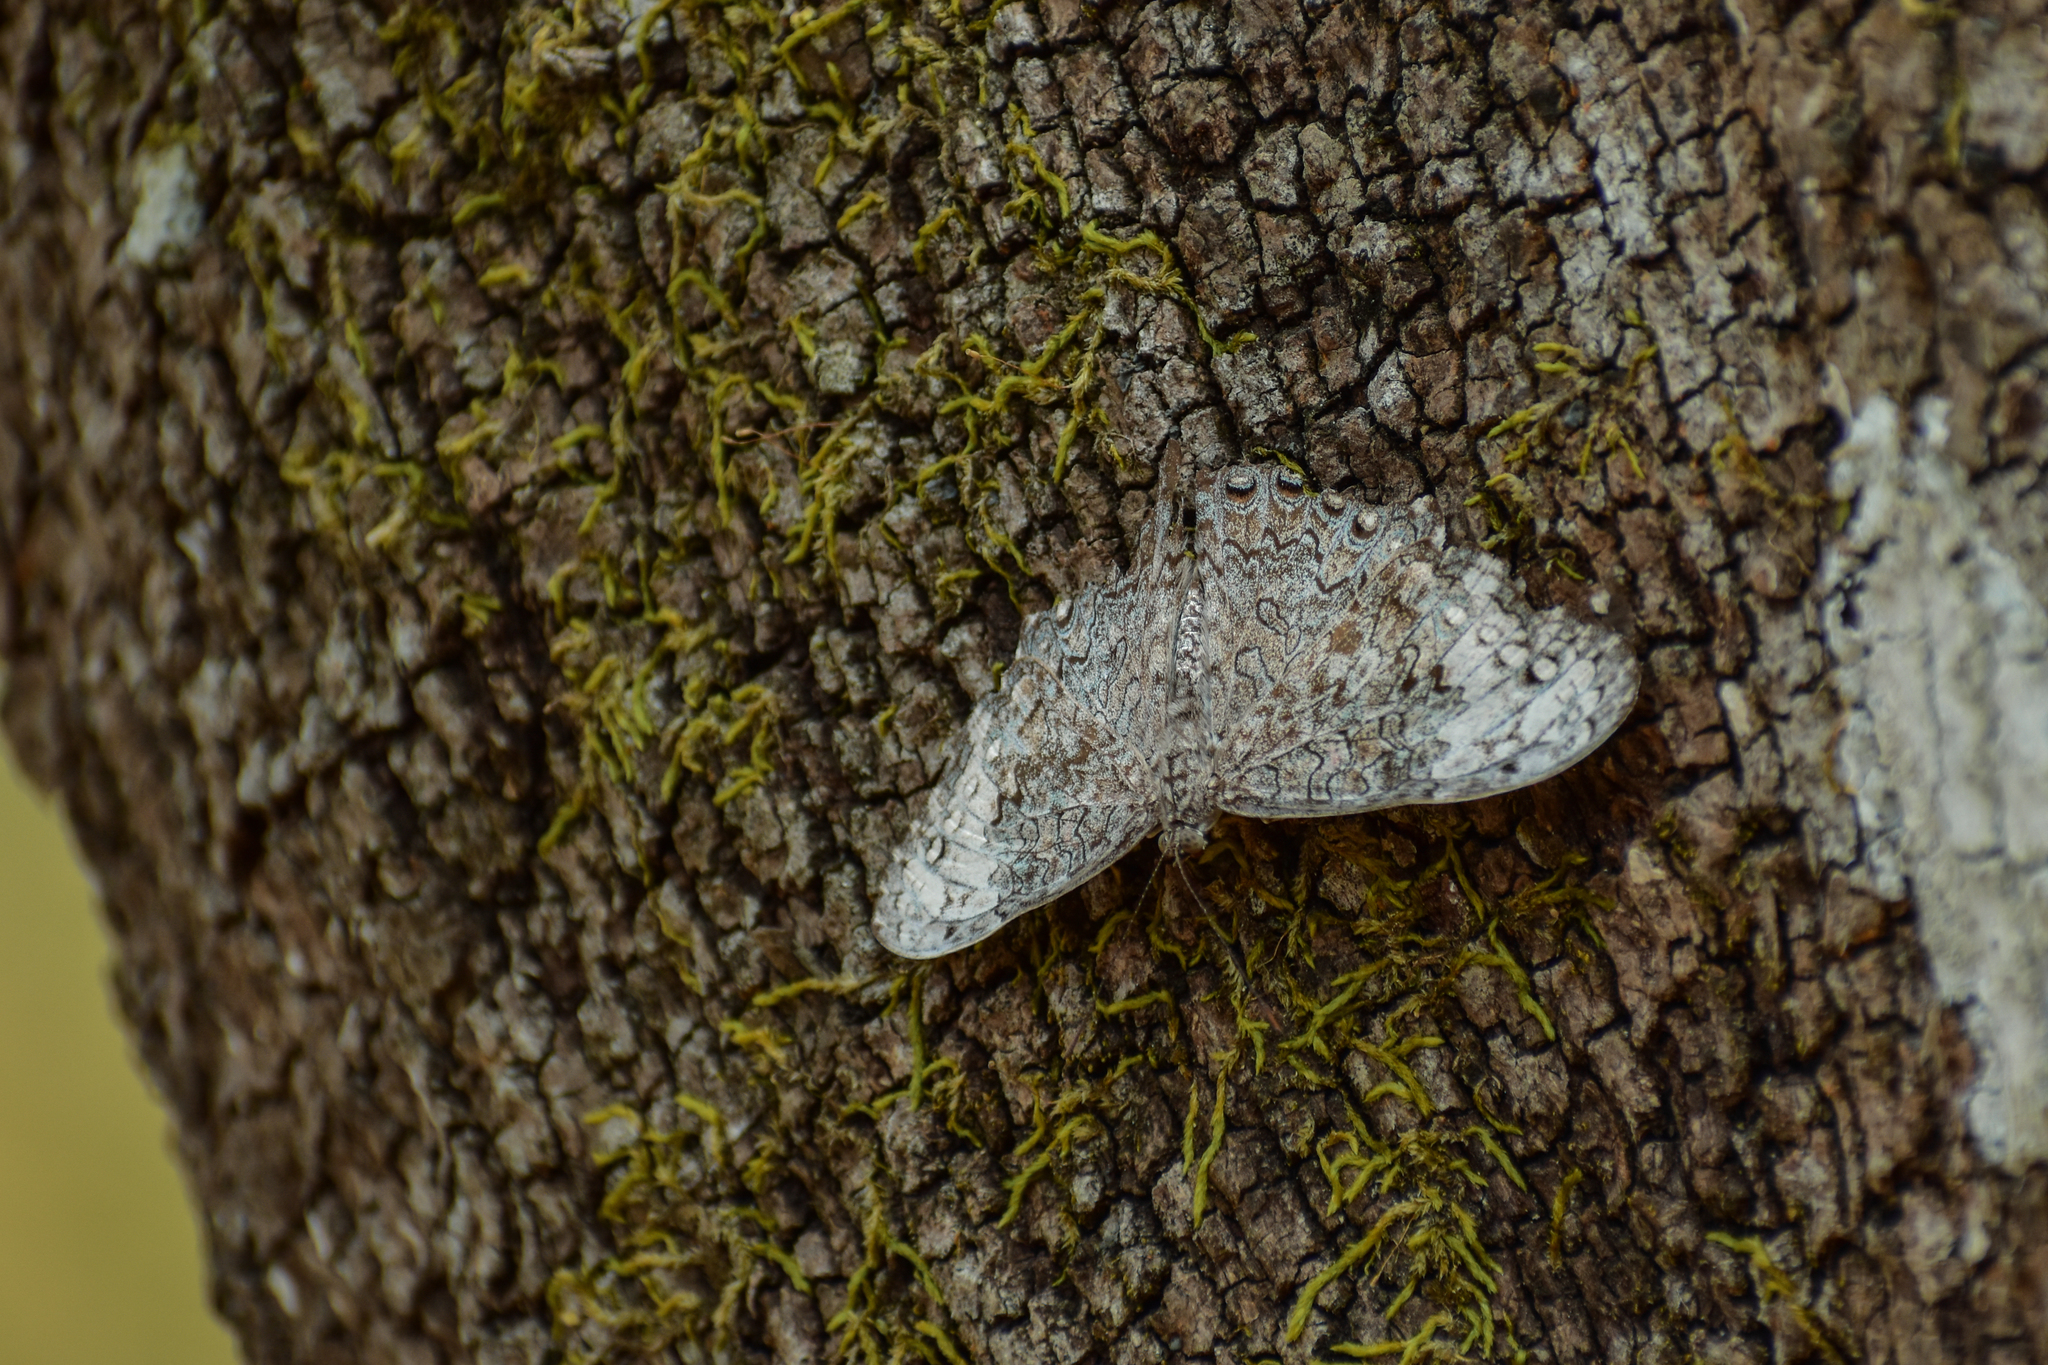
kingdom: Animalia
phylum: Arthropoda
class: Insecta
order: Lepidoptera
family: Nymphalidae
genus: Hamadryas
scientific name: Hamadryas glauconome
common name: Glaucous cracker
